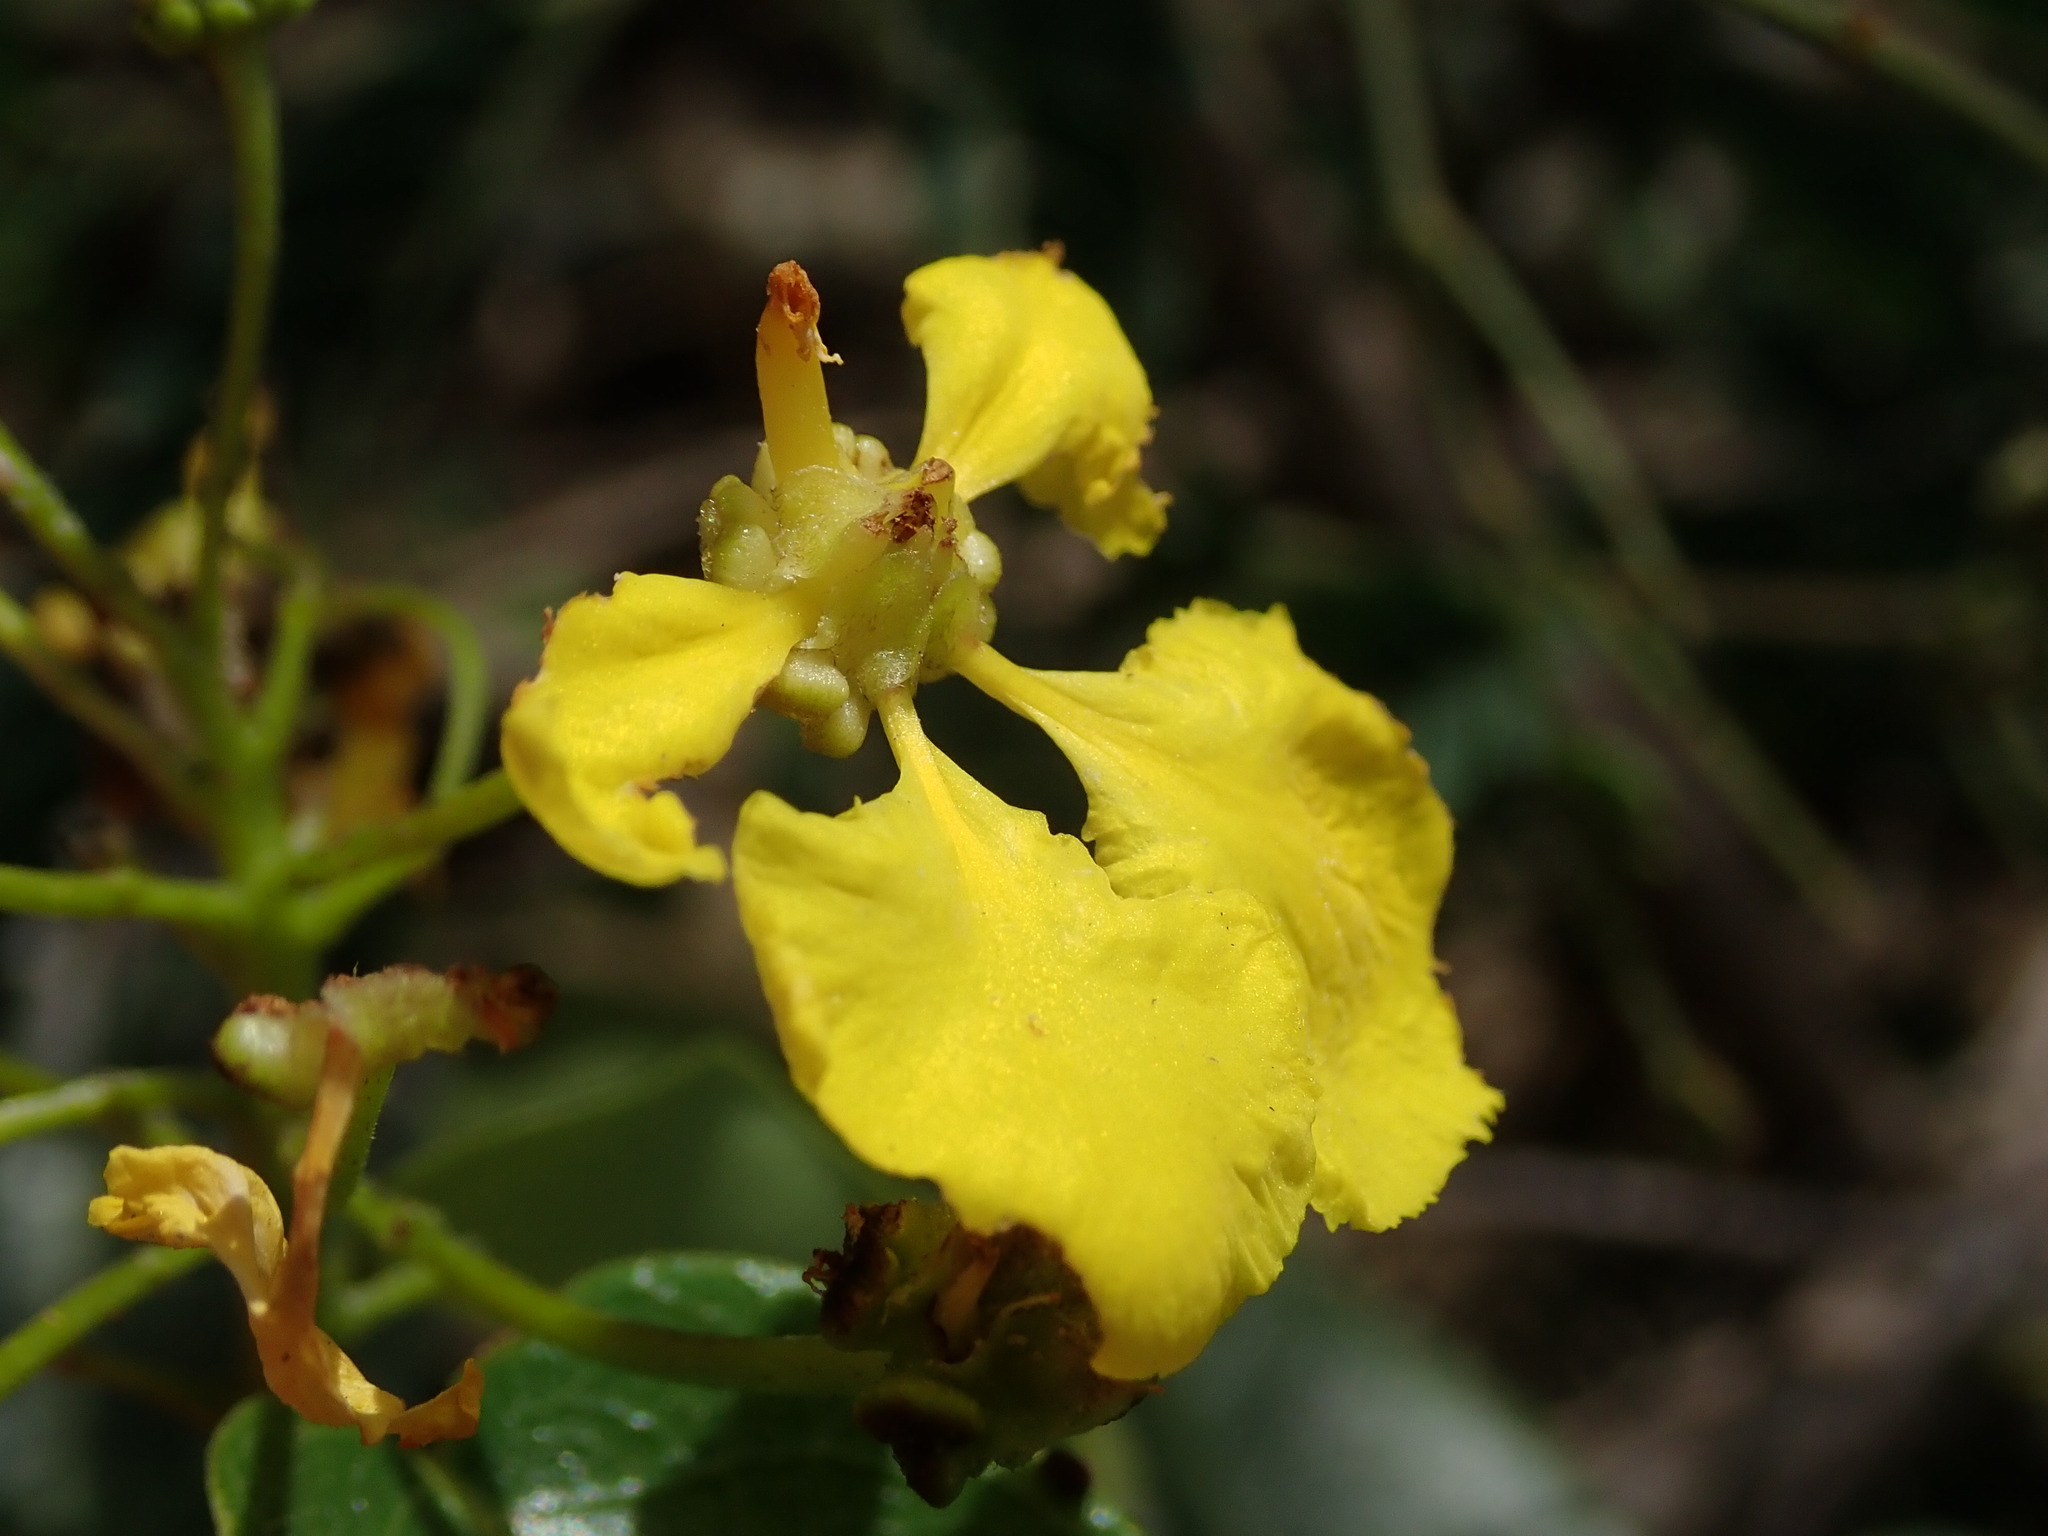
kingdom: Plantae
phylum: Tracheophyta
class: Magnoliopsida
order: Malpighiales
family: Malpighiaceae
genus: Stigmaphyllon
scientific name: Stigmaphyllon emarginatum
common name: Monarch amazonvine
